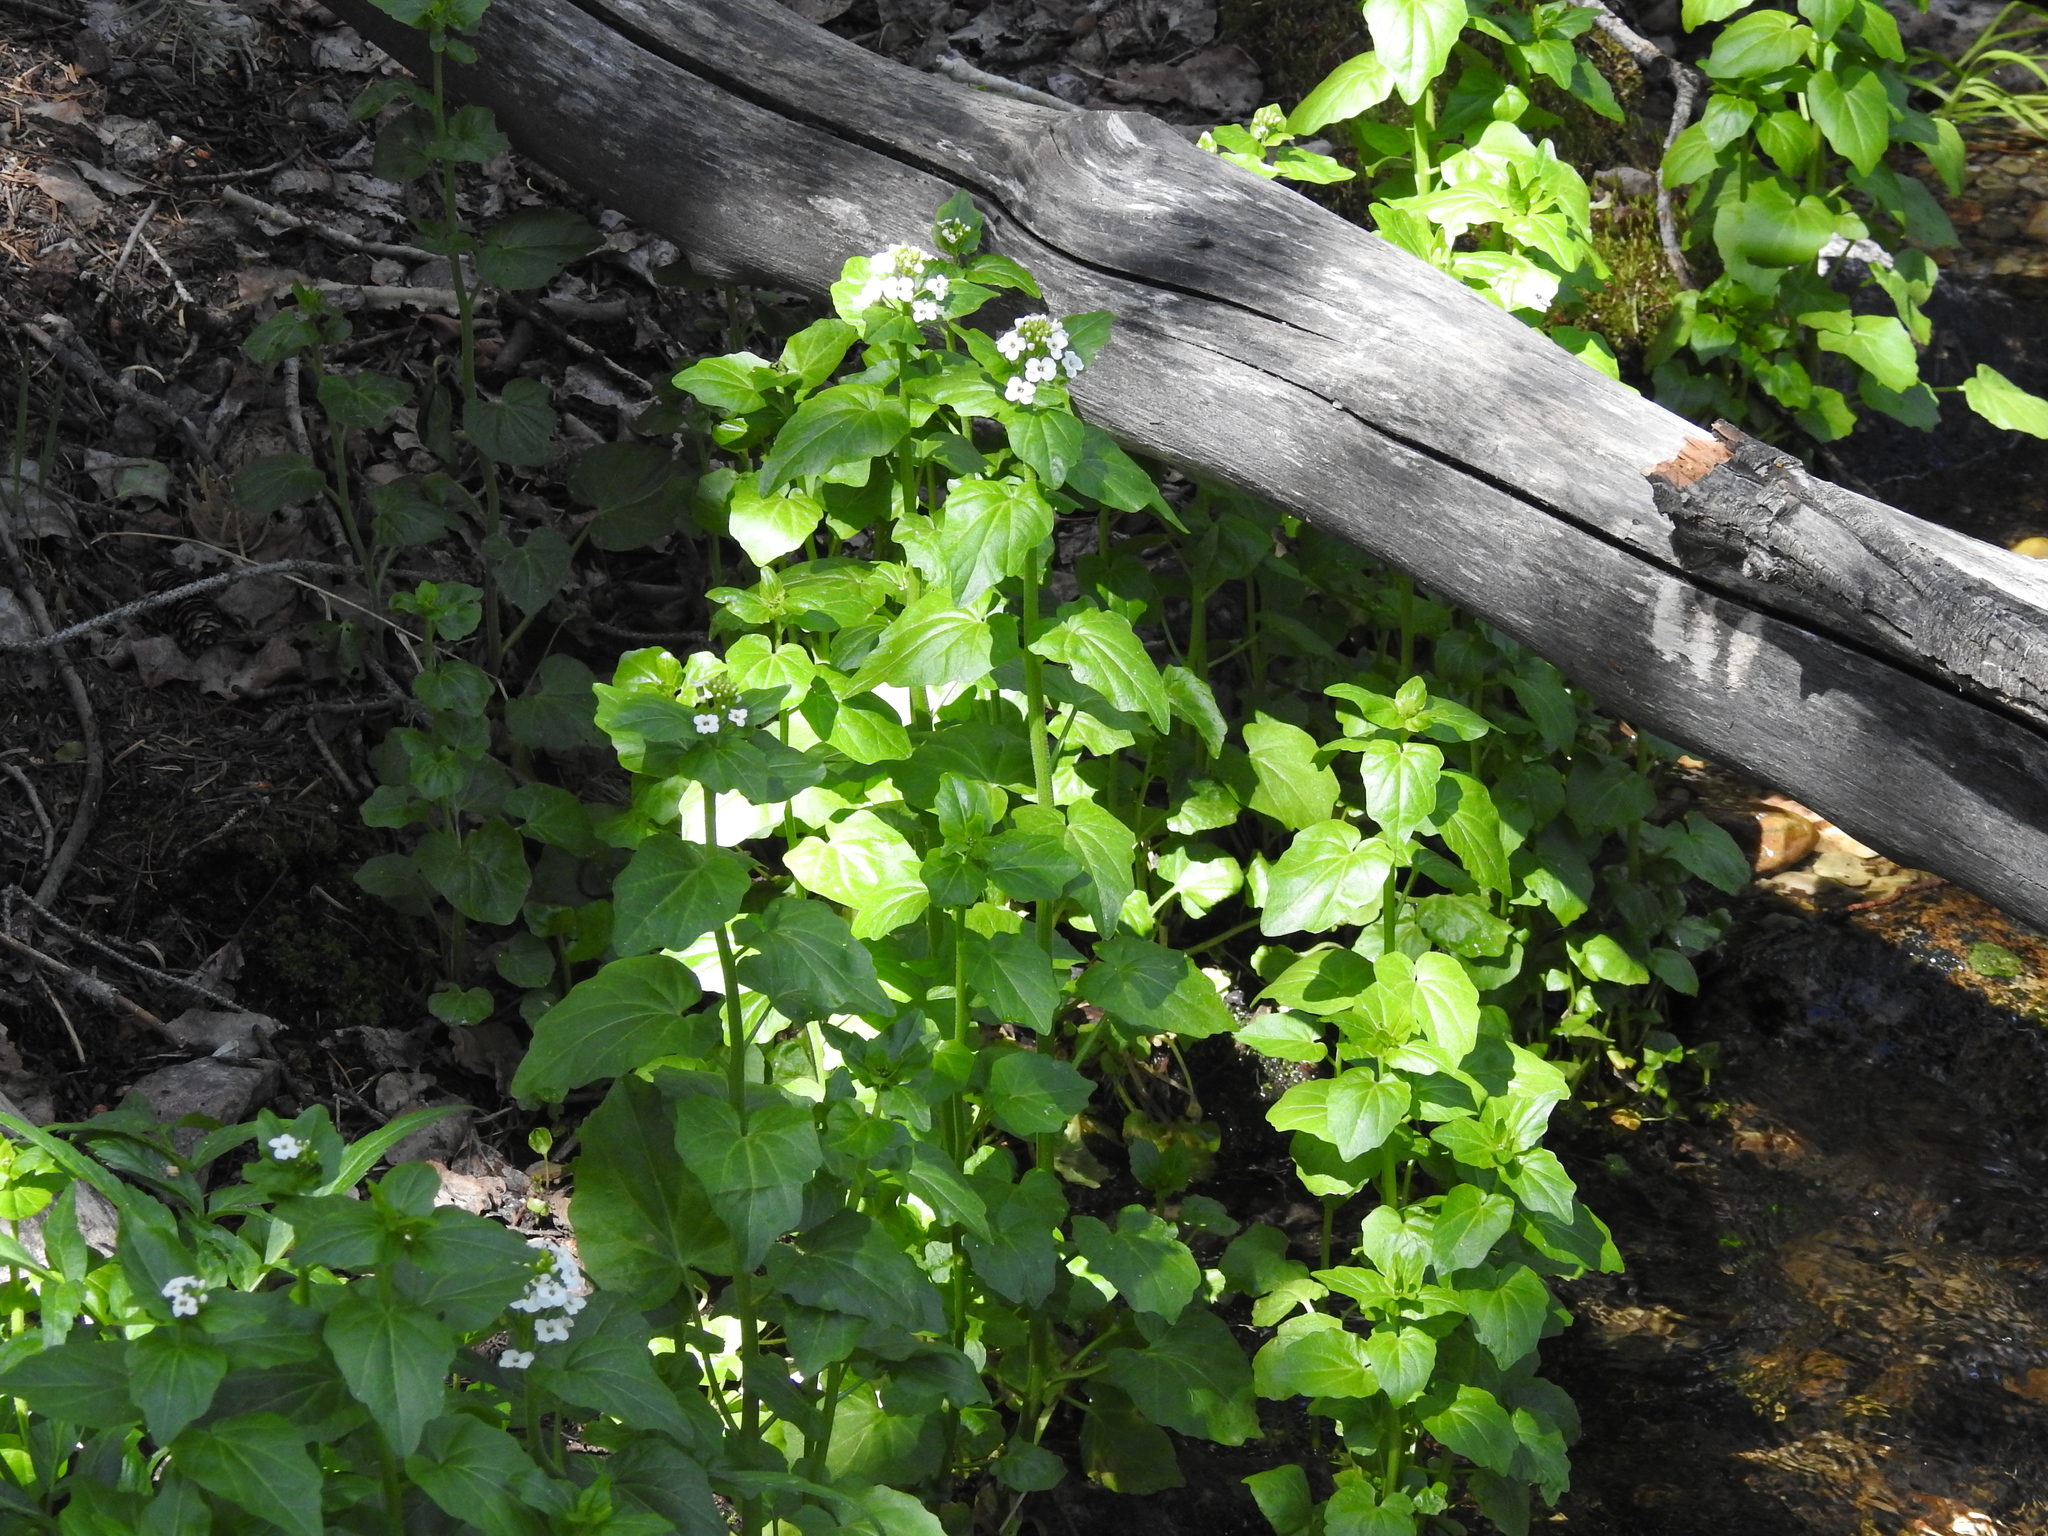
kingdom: Plantae
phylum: Tracheophyta
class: Magnoliopsida
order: Brassicales
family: Brassicaceae
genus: Cardamine
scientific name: Cardamine cordifolia
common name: Heart-leaf bittercress
